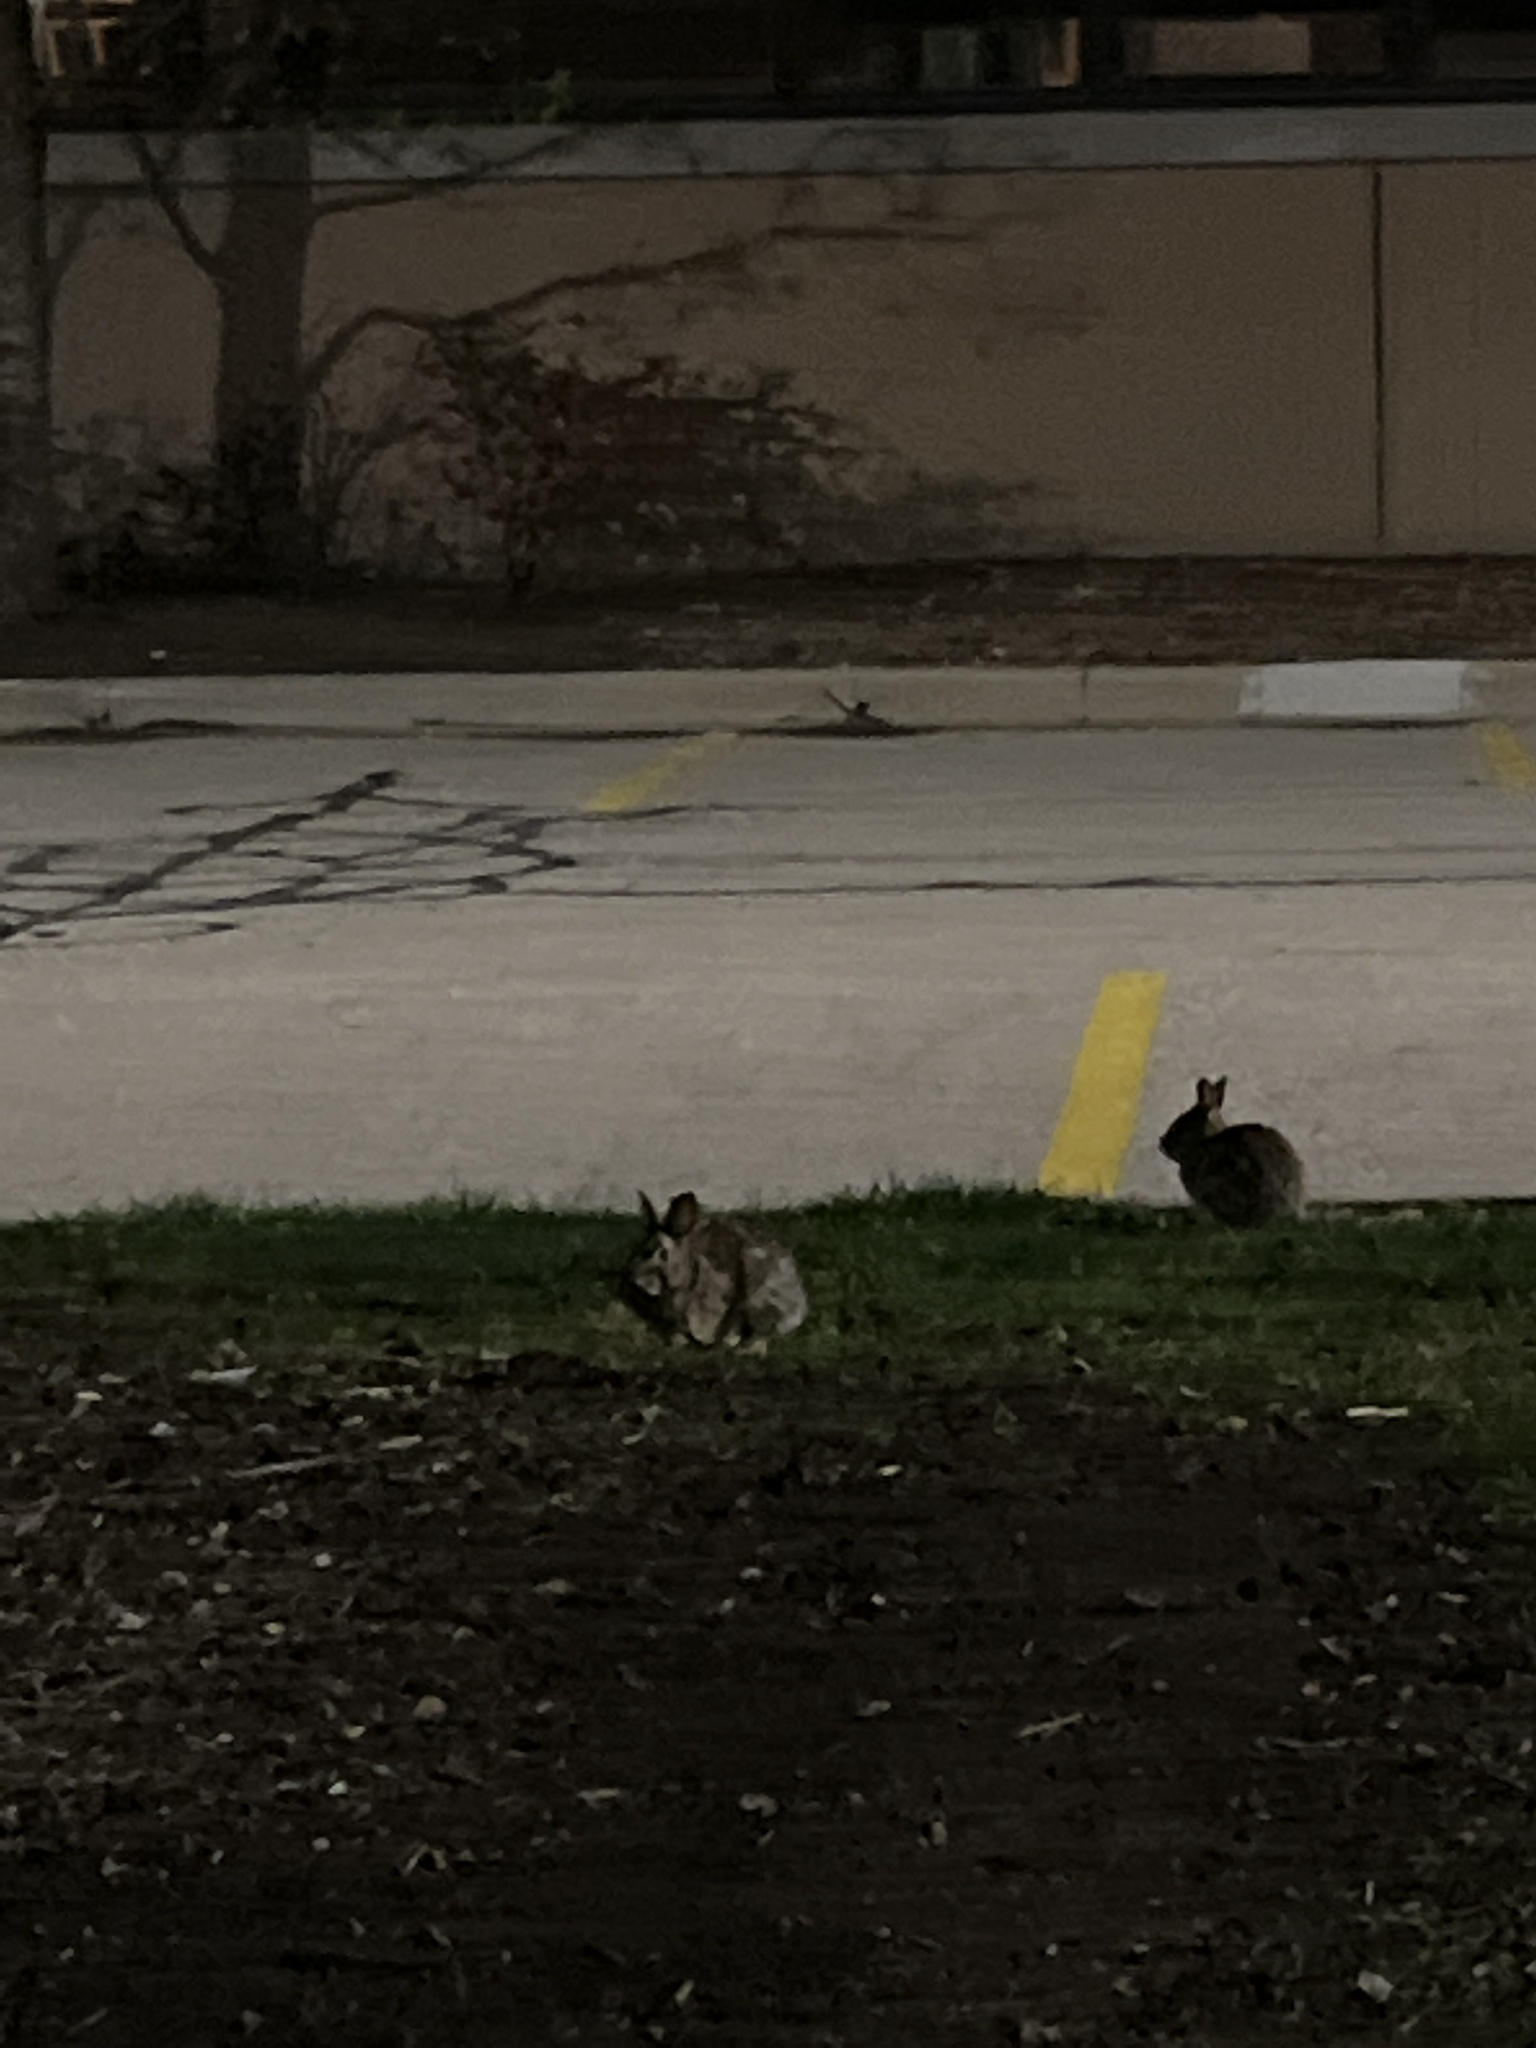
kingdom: Animalia
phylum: Chordata
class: Mammalia
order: Lagomorpha
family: Leporidae
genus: Sylvilagus
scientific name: Sylvilagus floridanus
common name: Eastern cottontail
